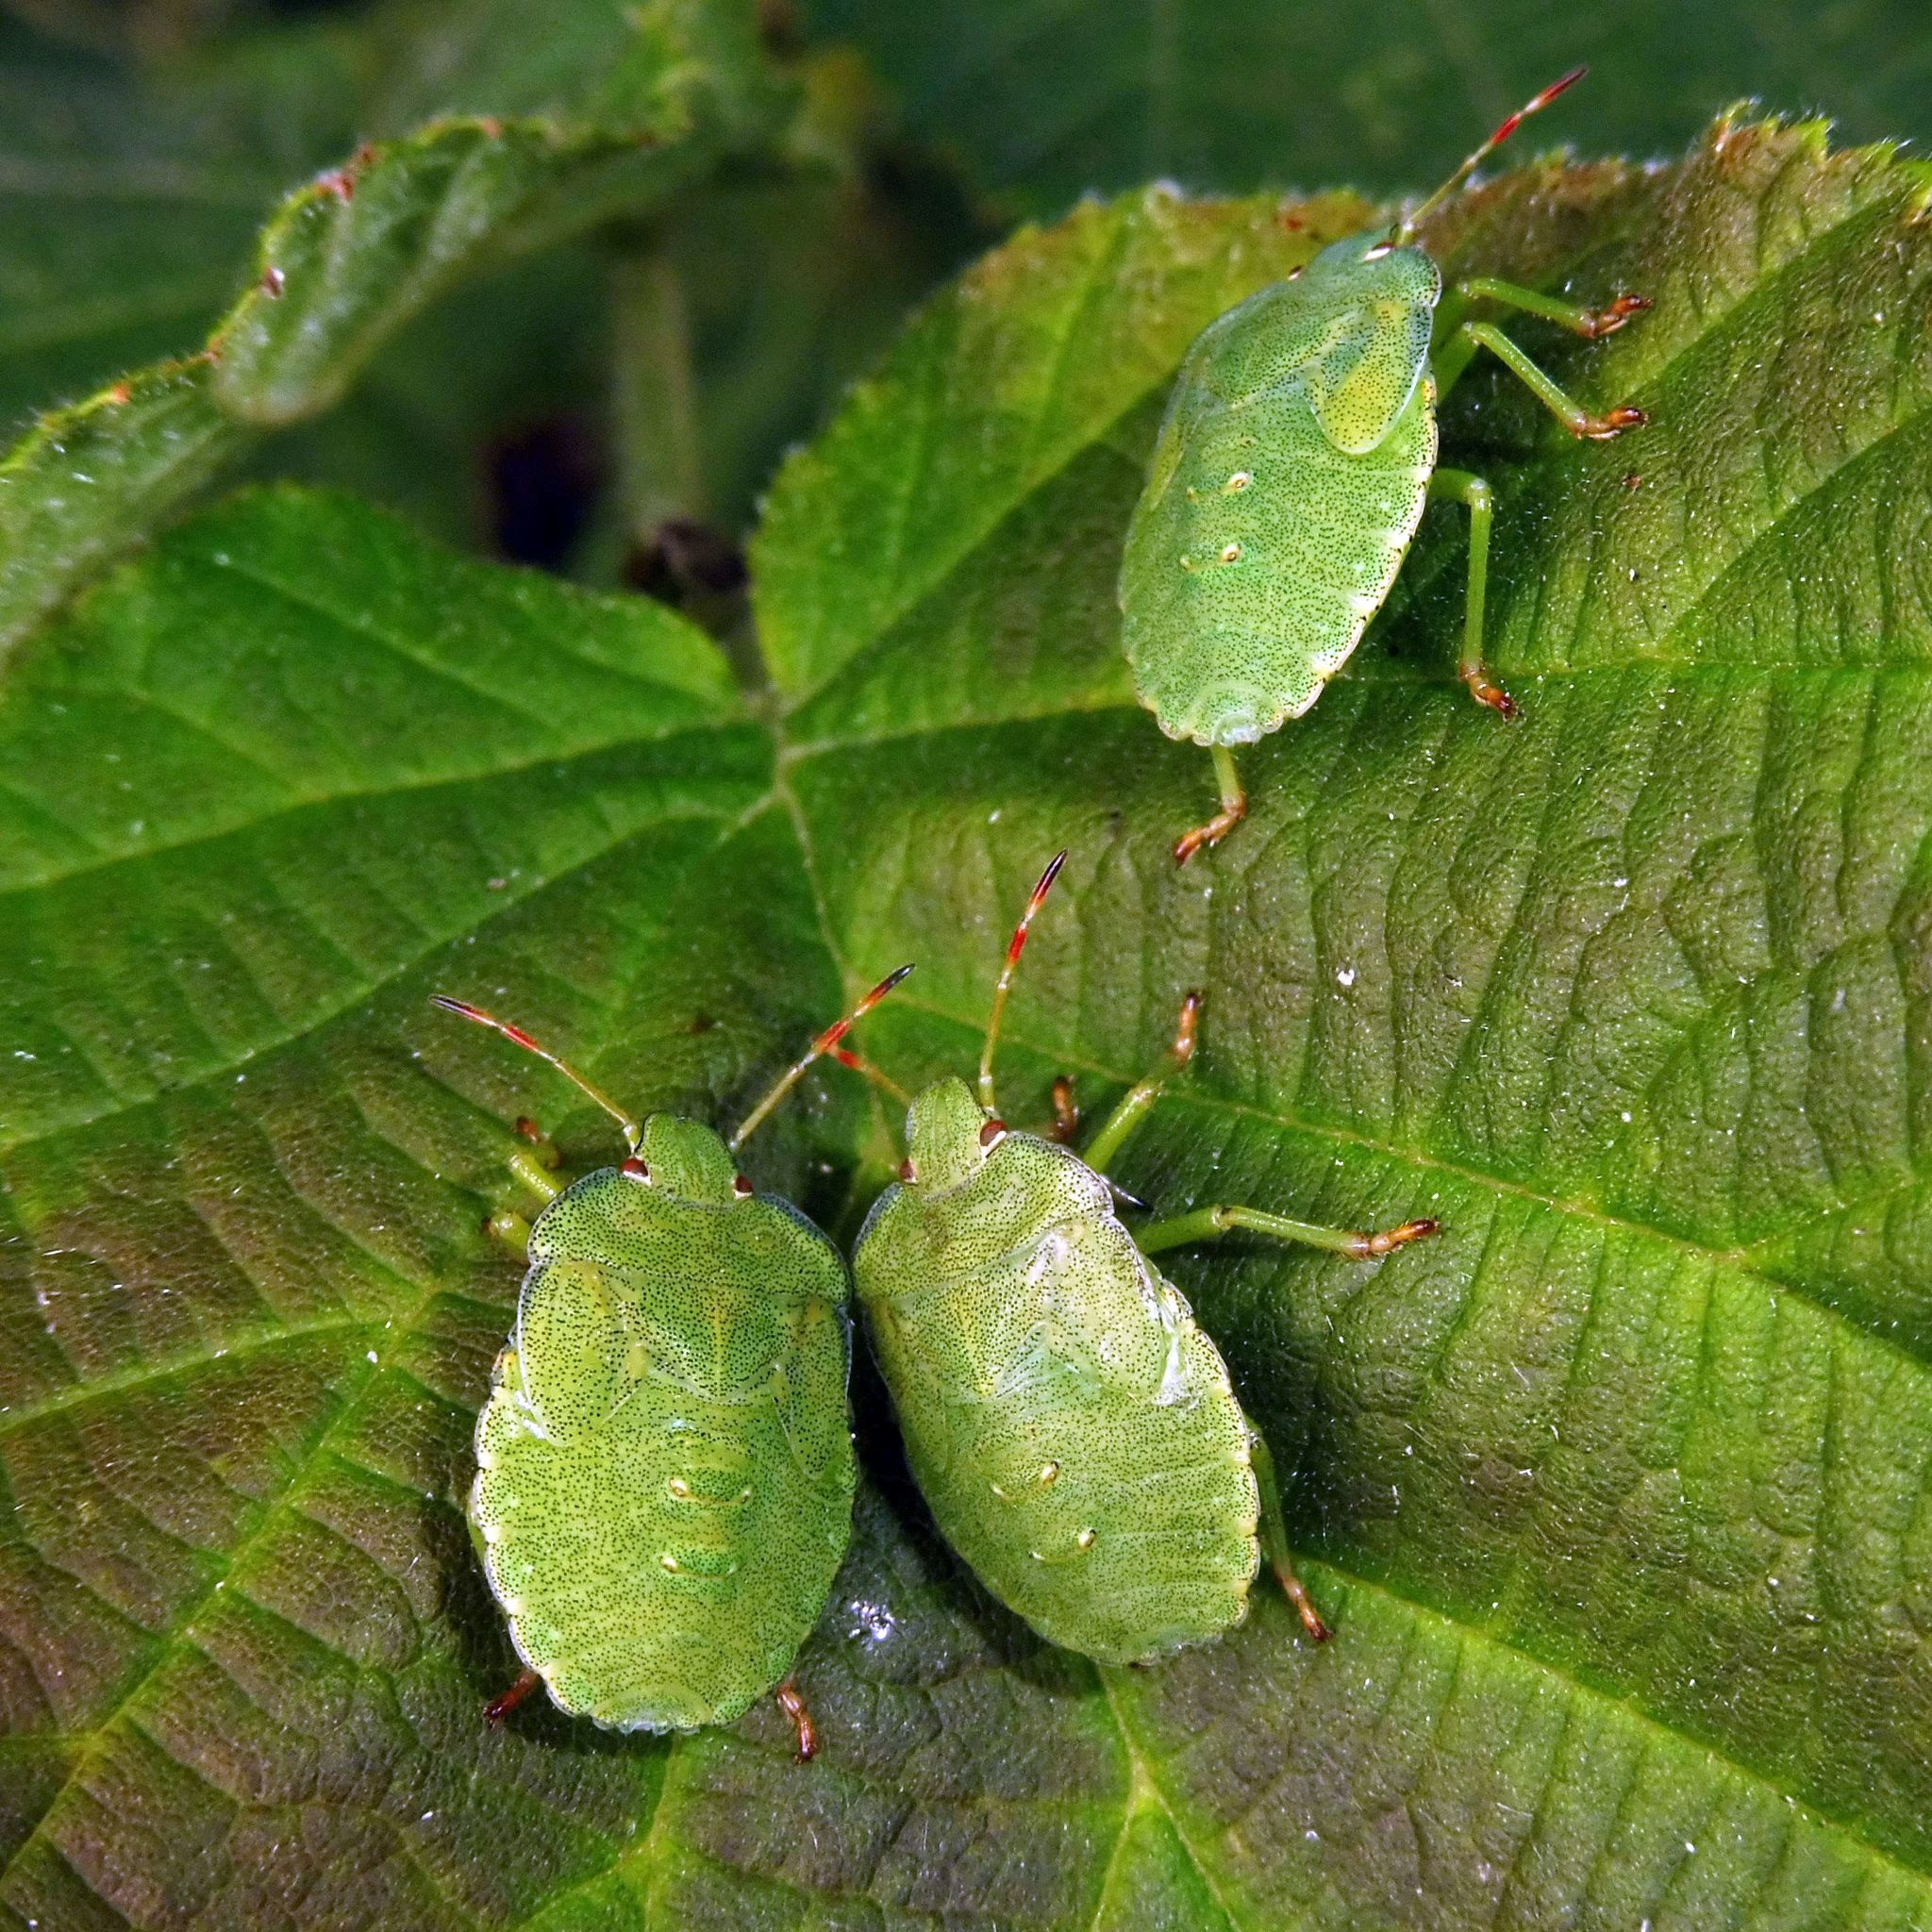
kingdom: Animalia
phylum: Arthropoda
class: Insecta
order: Hemiptera
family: Pentatomidae
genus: Palomena
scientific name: Palomena prasina
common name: Green shieldbug
